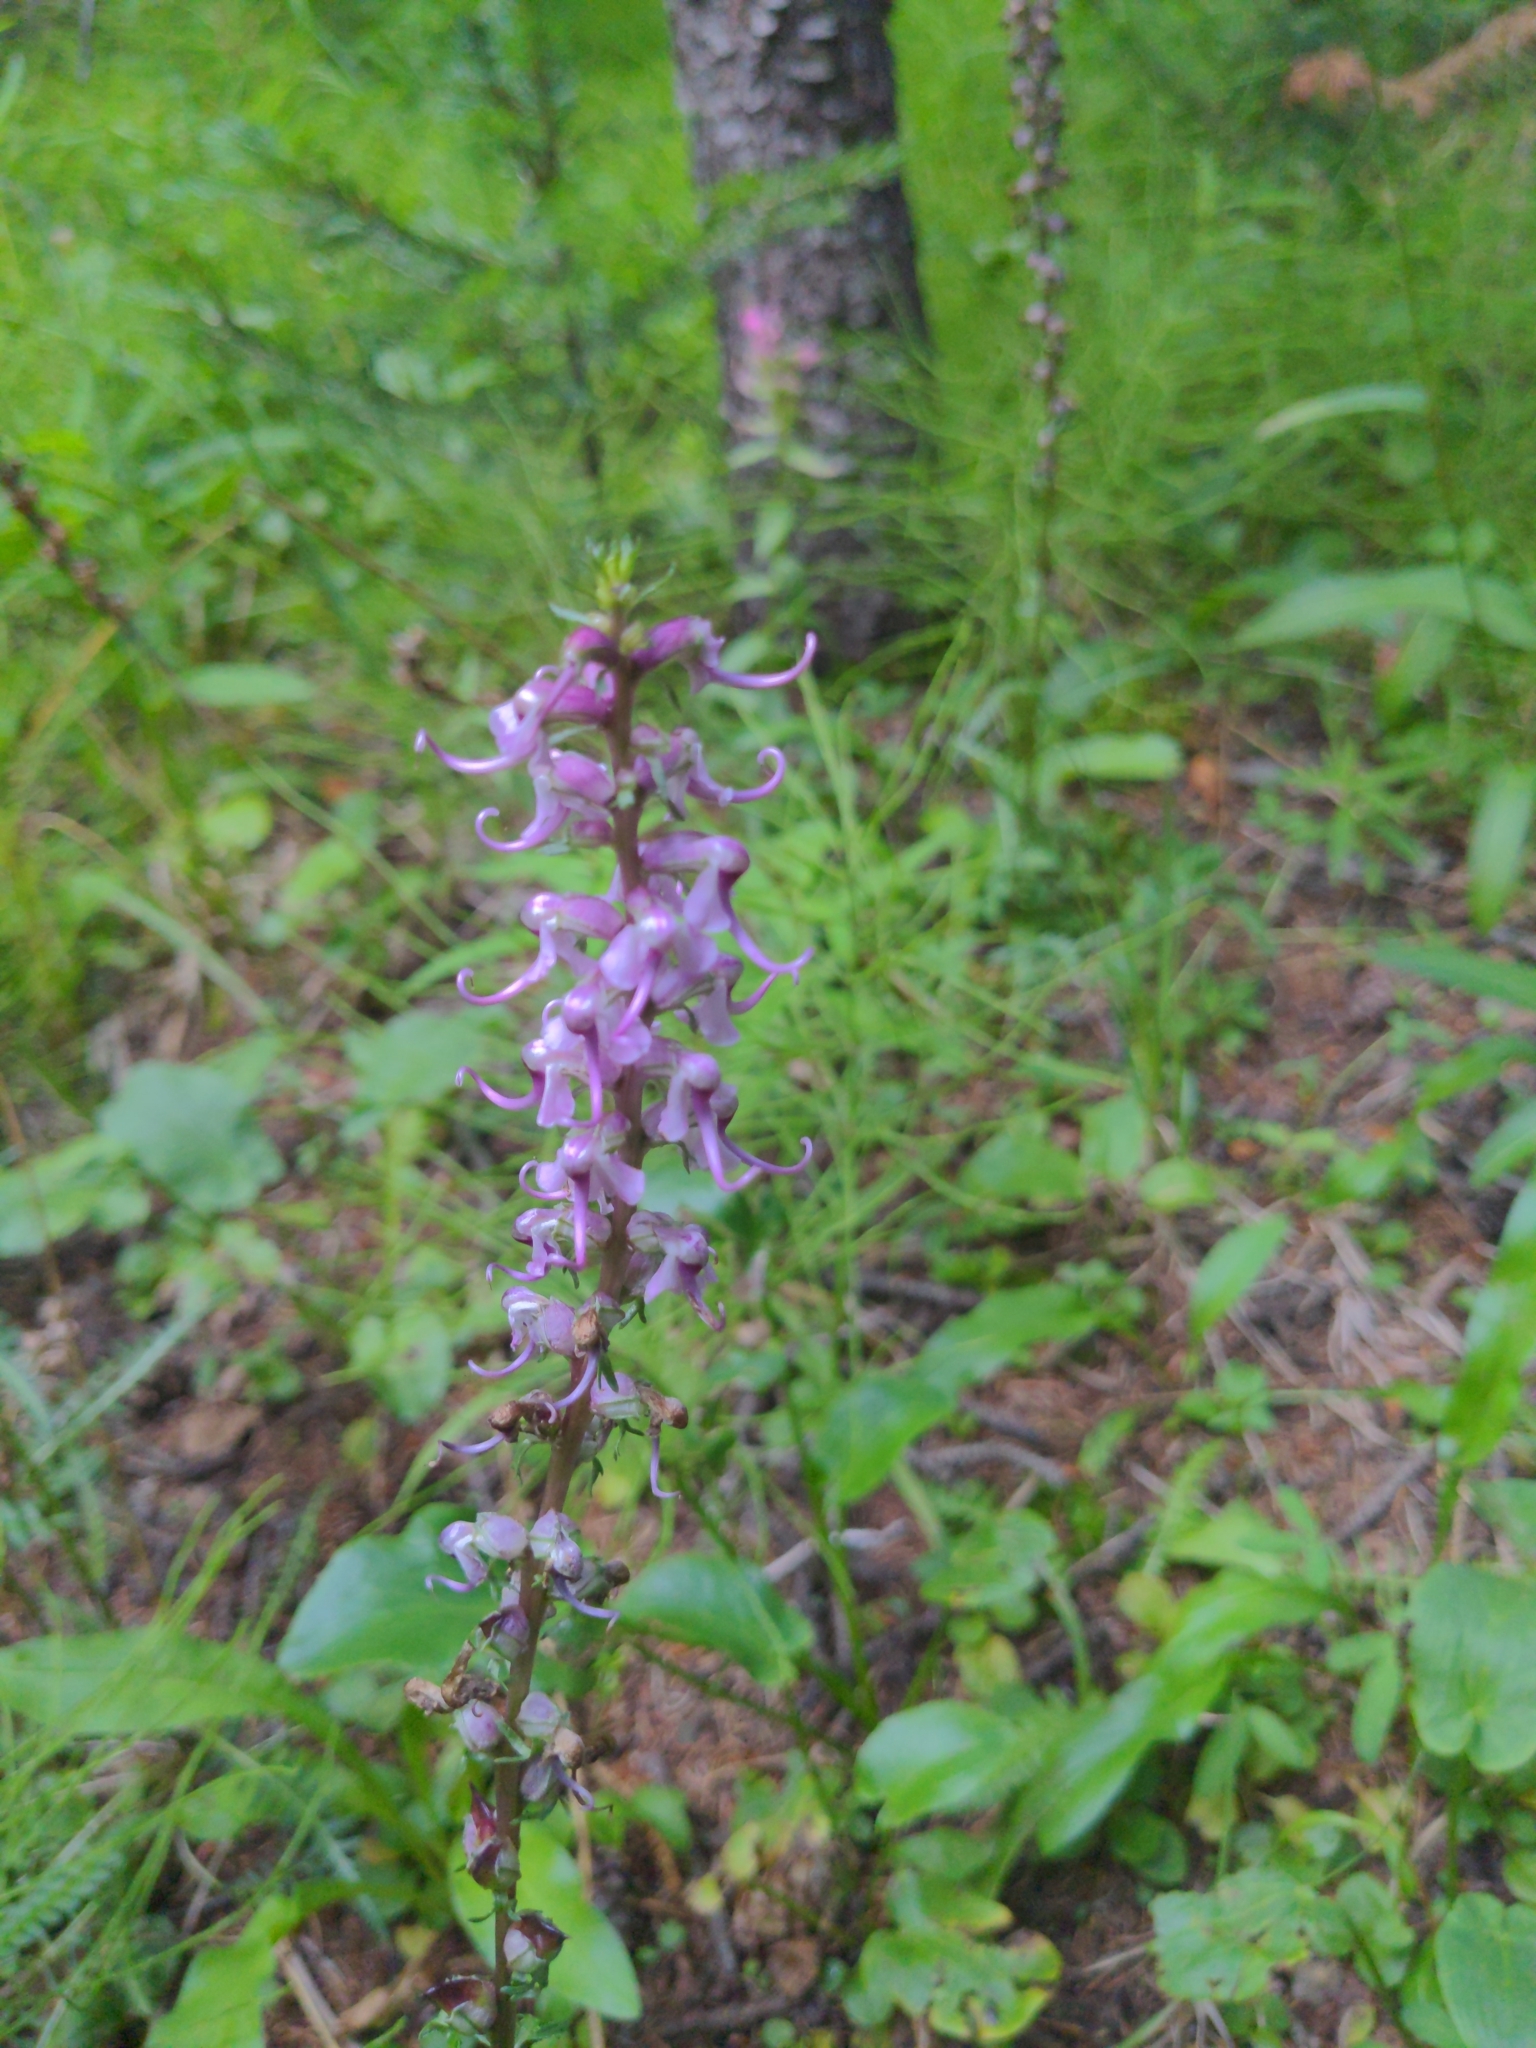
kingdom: Plantae
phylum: Tracheophyta
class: Magnoliopsida
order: Lamiales
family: Orobanchaceae
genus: Pedicularis
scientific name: Pedicularis groenlandica
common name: Elephant's-head
